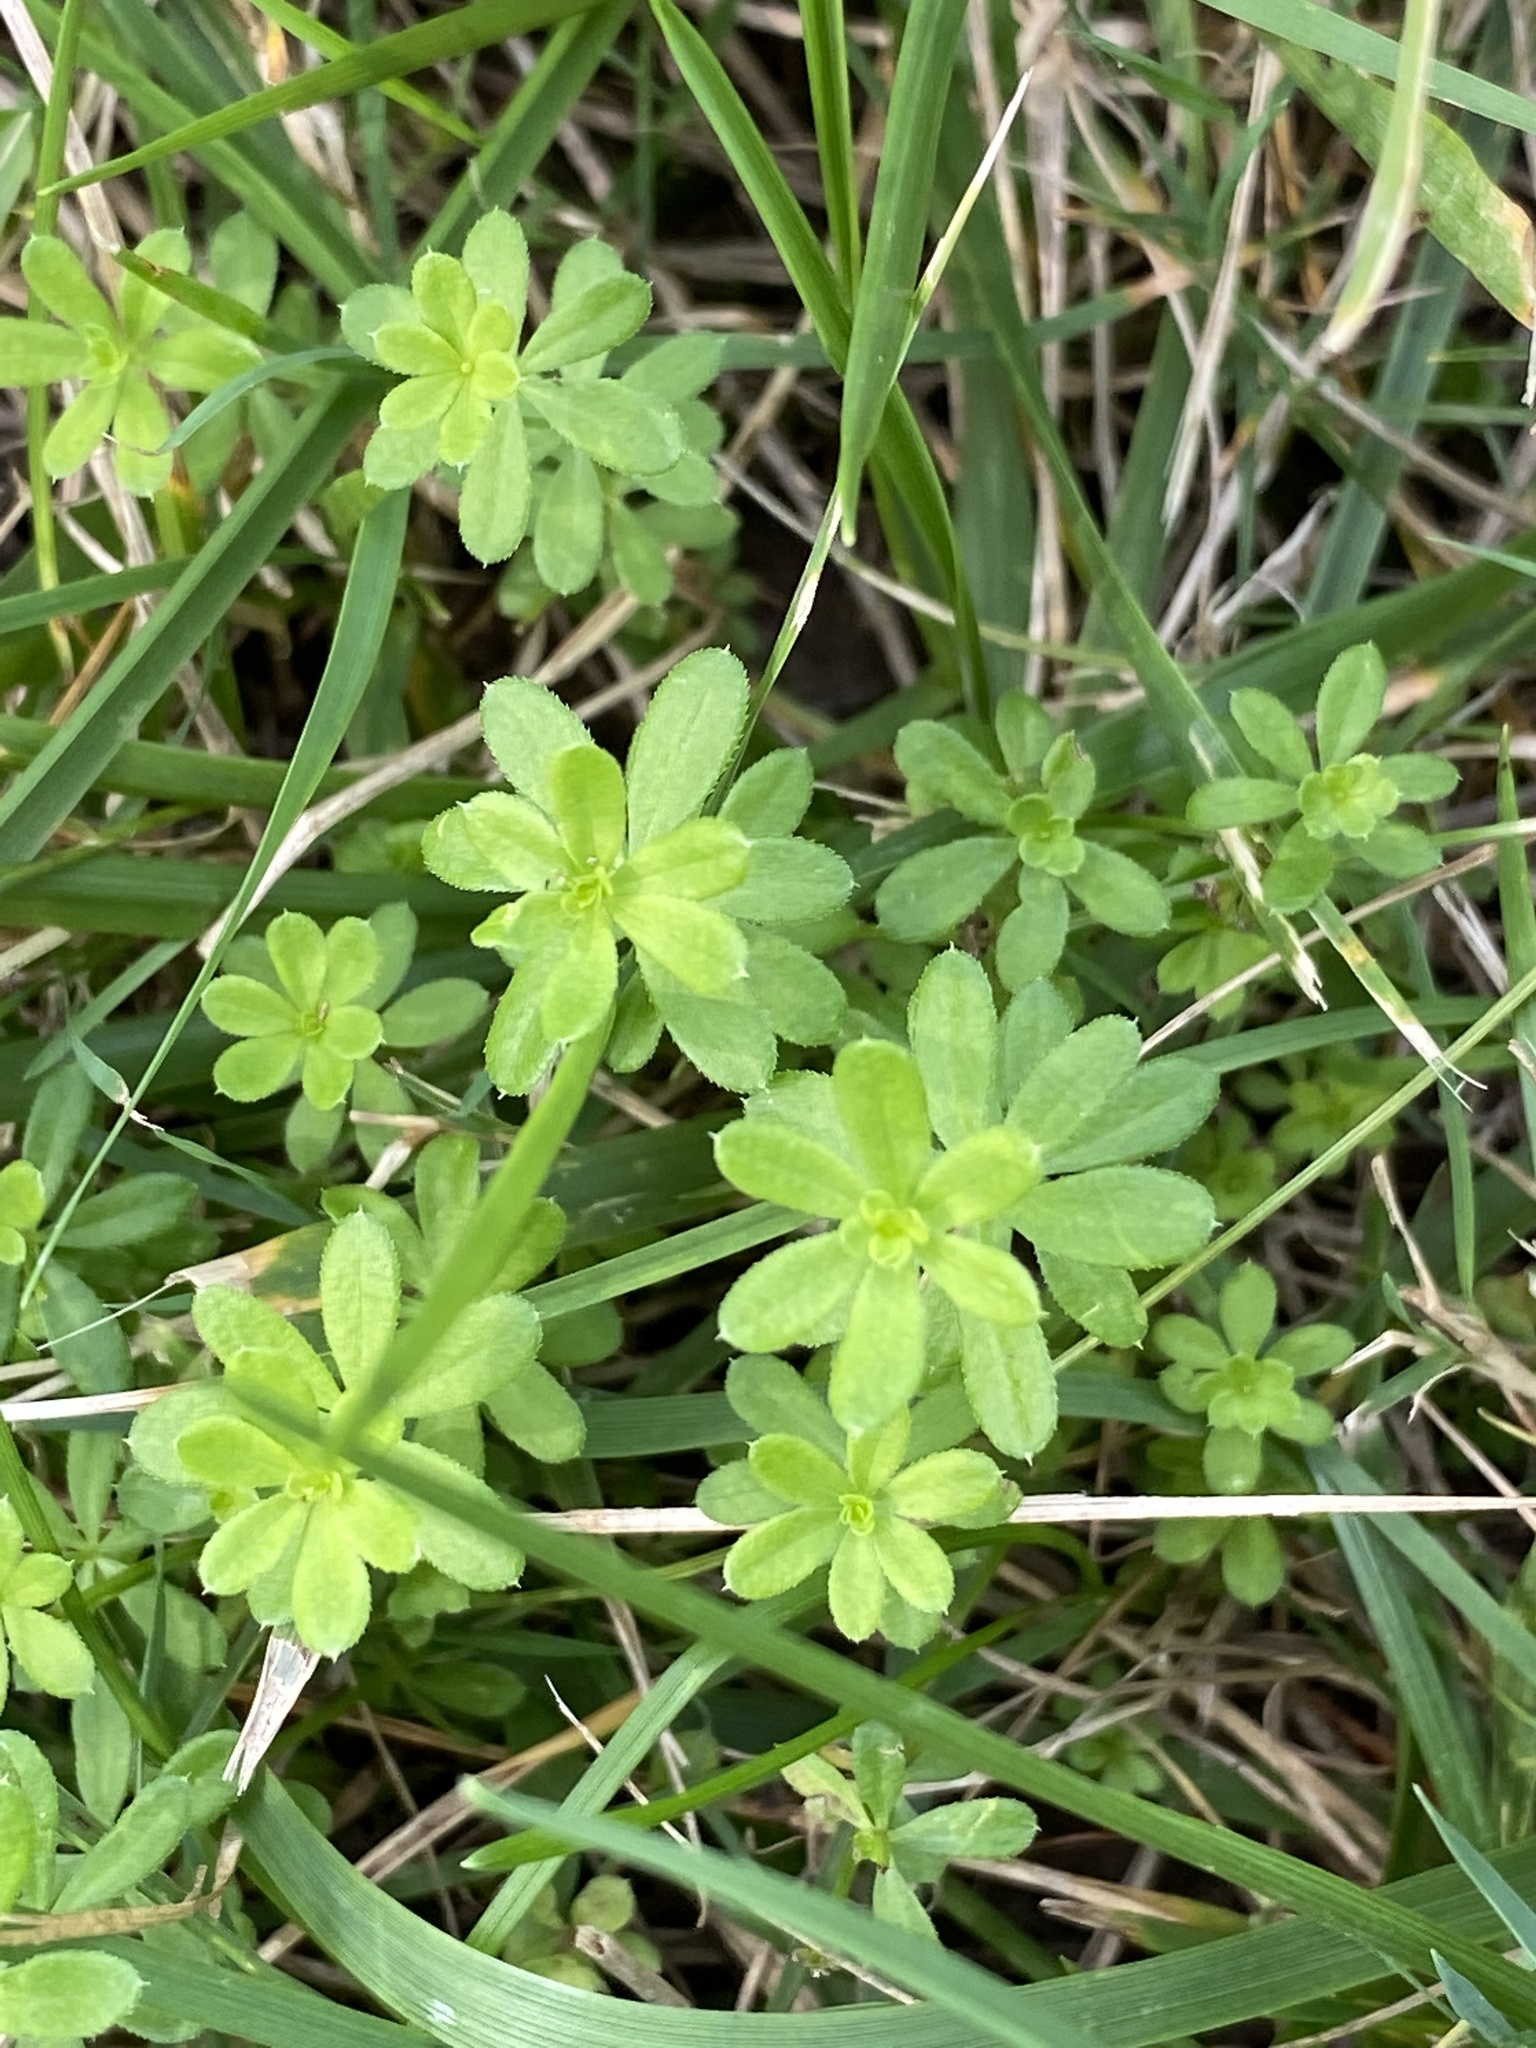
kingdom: Plantae
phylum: Tracheophyta
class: Magnoliopsida
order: Gentianales
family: Rubiaceae
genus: Galium
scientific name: Galium mollugo
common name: Hedge bedstraw
